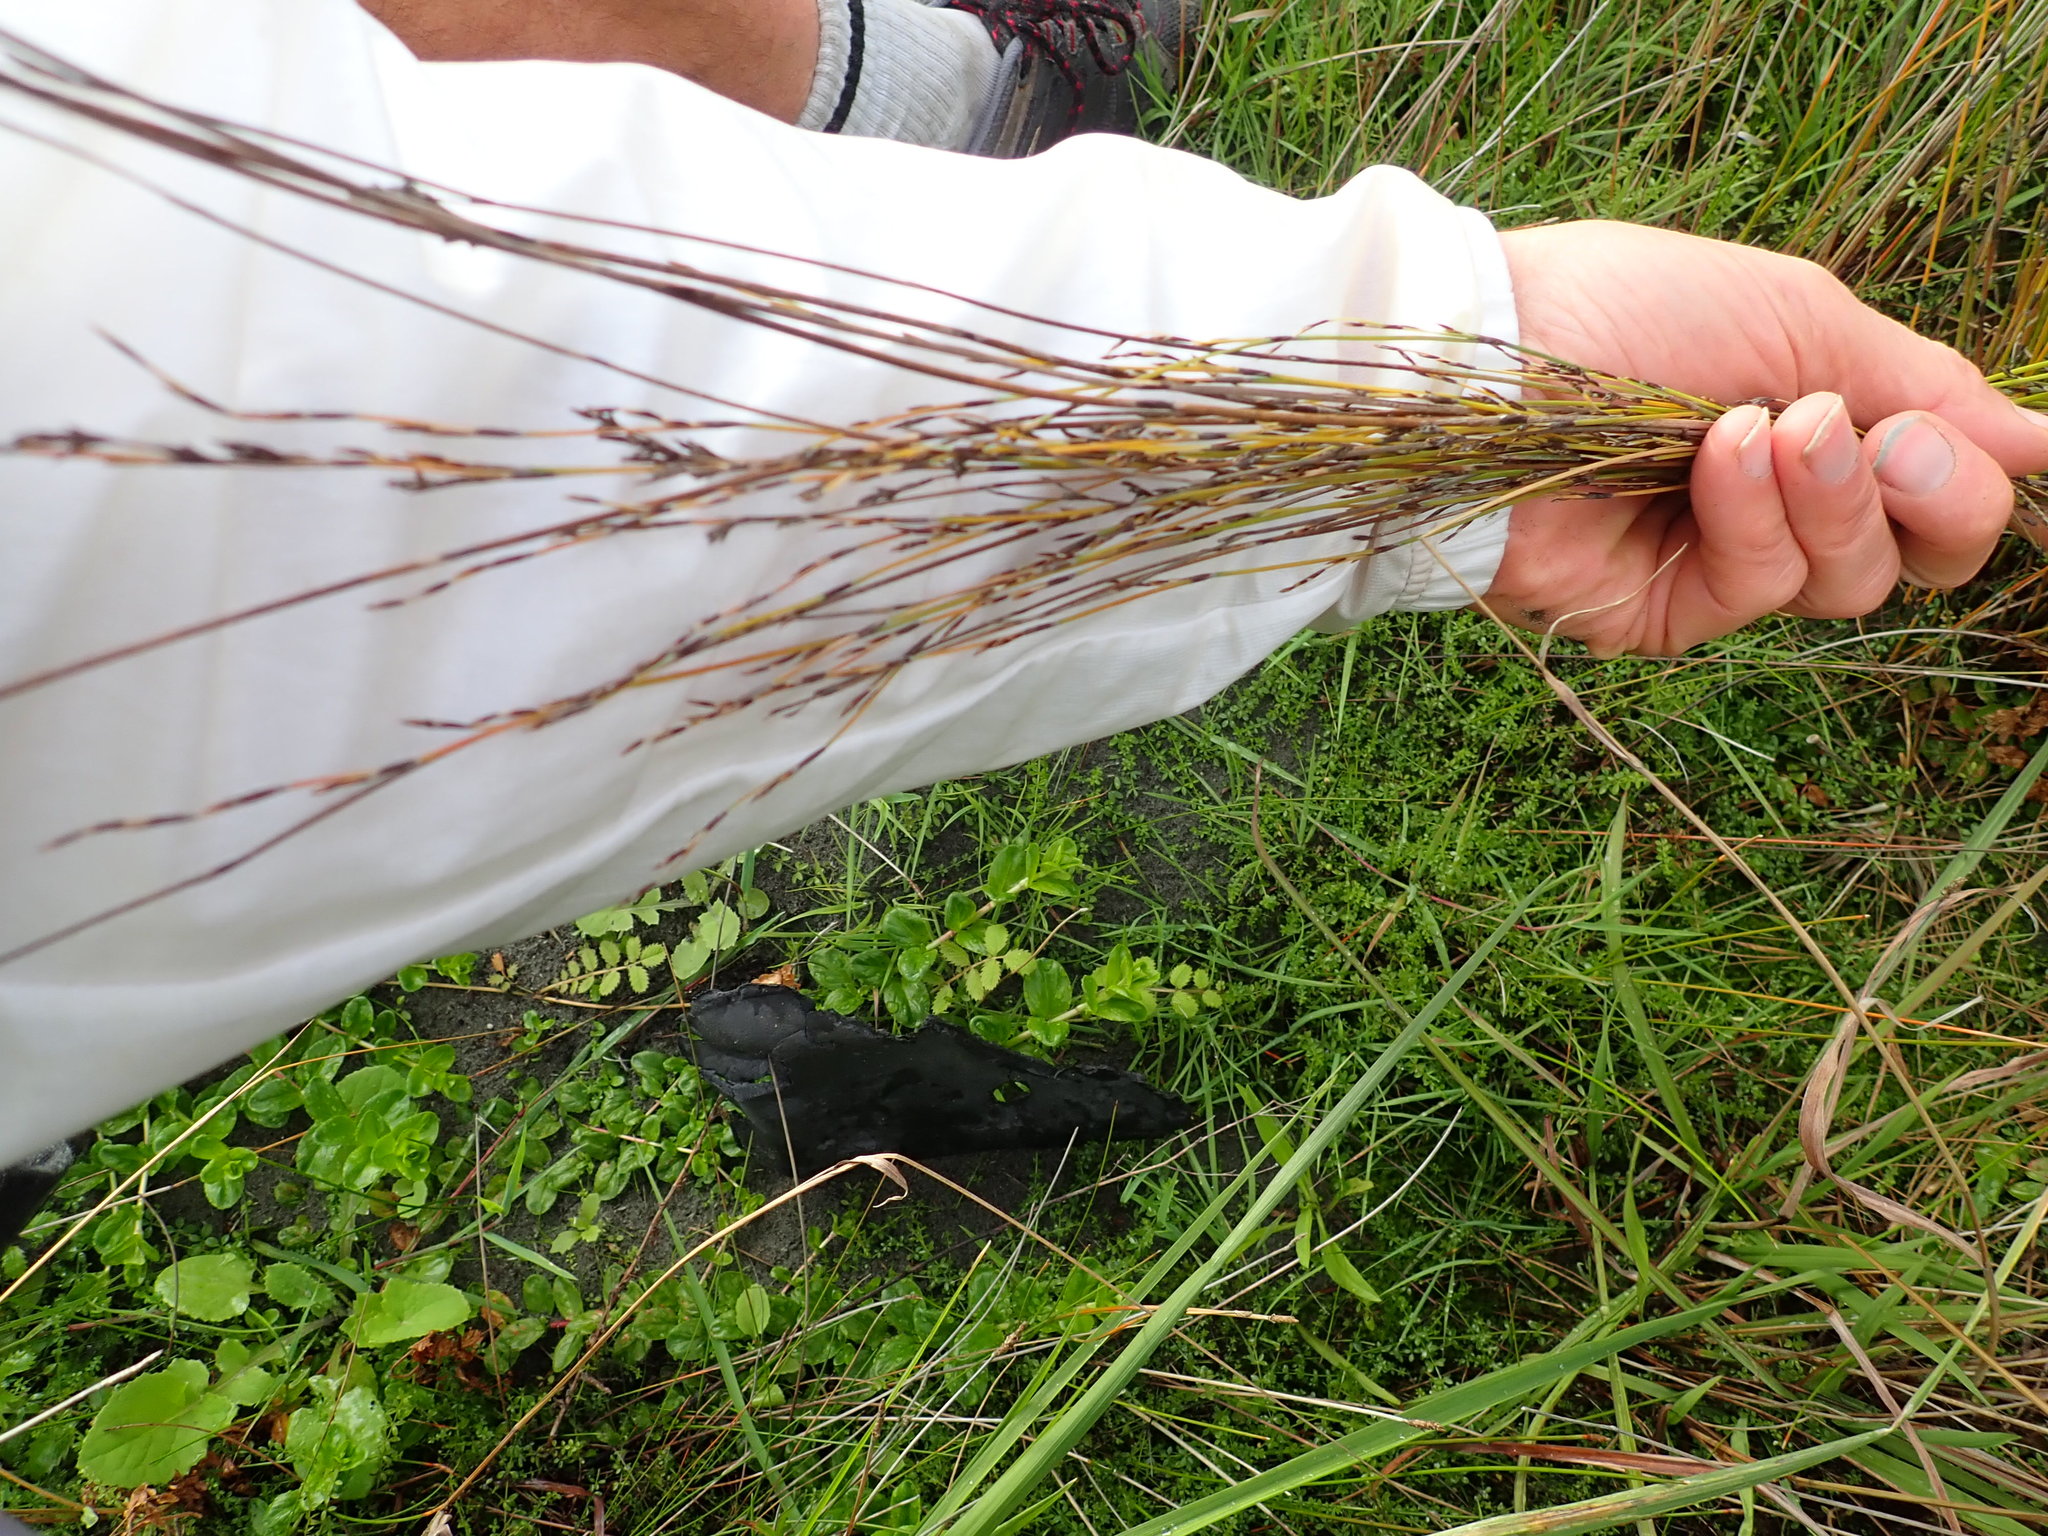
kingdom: Plantae
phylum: Tracheophyta
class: Liliopsida
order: Poales
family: Restionaceae
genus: Apodasmia
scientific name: Apodasmia similis
